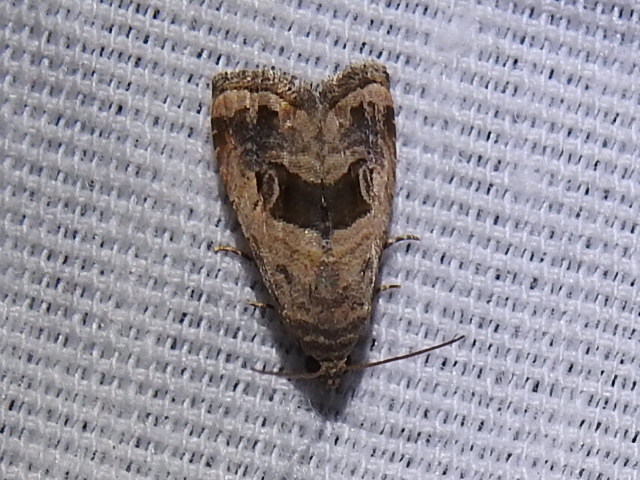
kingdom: Animalia
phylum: Arthropoda
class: Insecta
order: Lepidoptera
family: Noctuidae
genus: Tripudia
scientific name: Tripudia quadrifera
